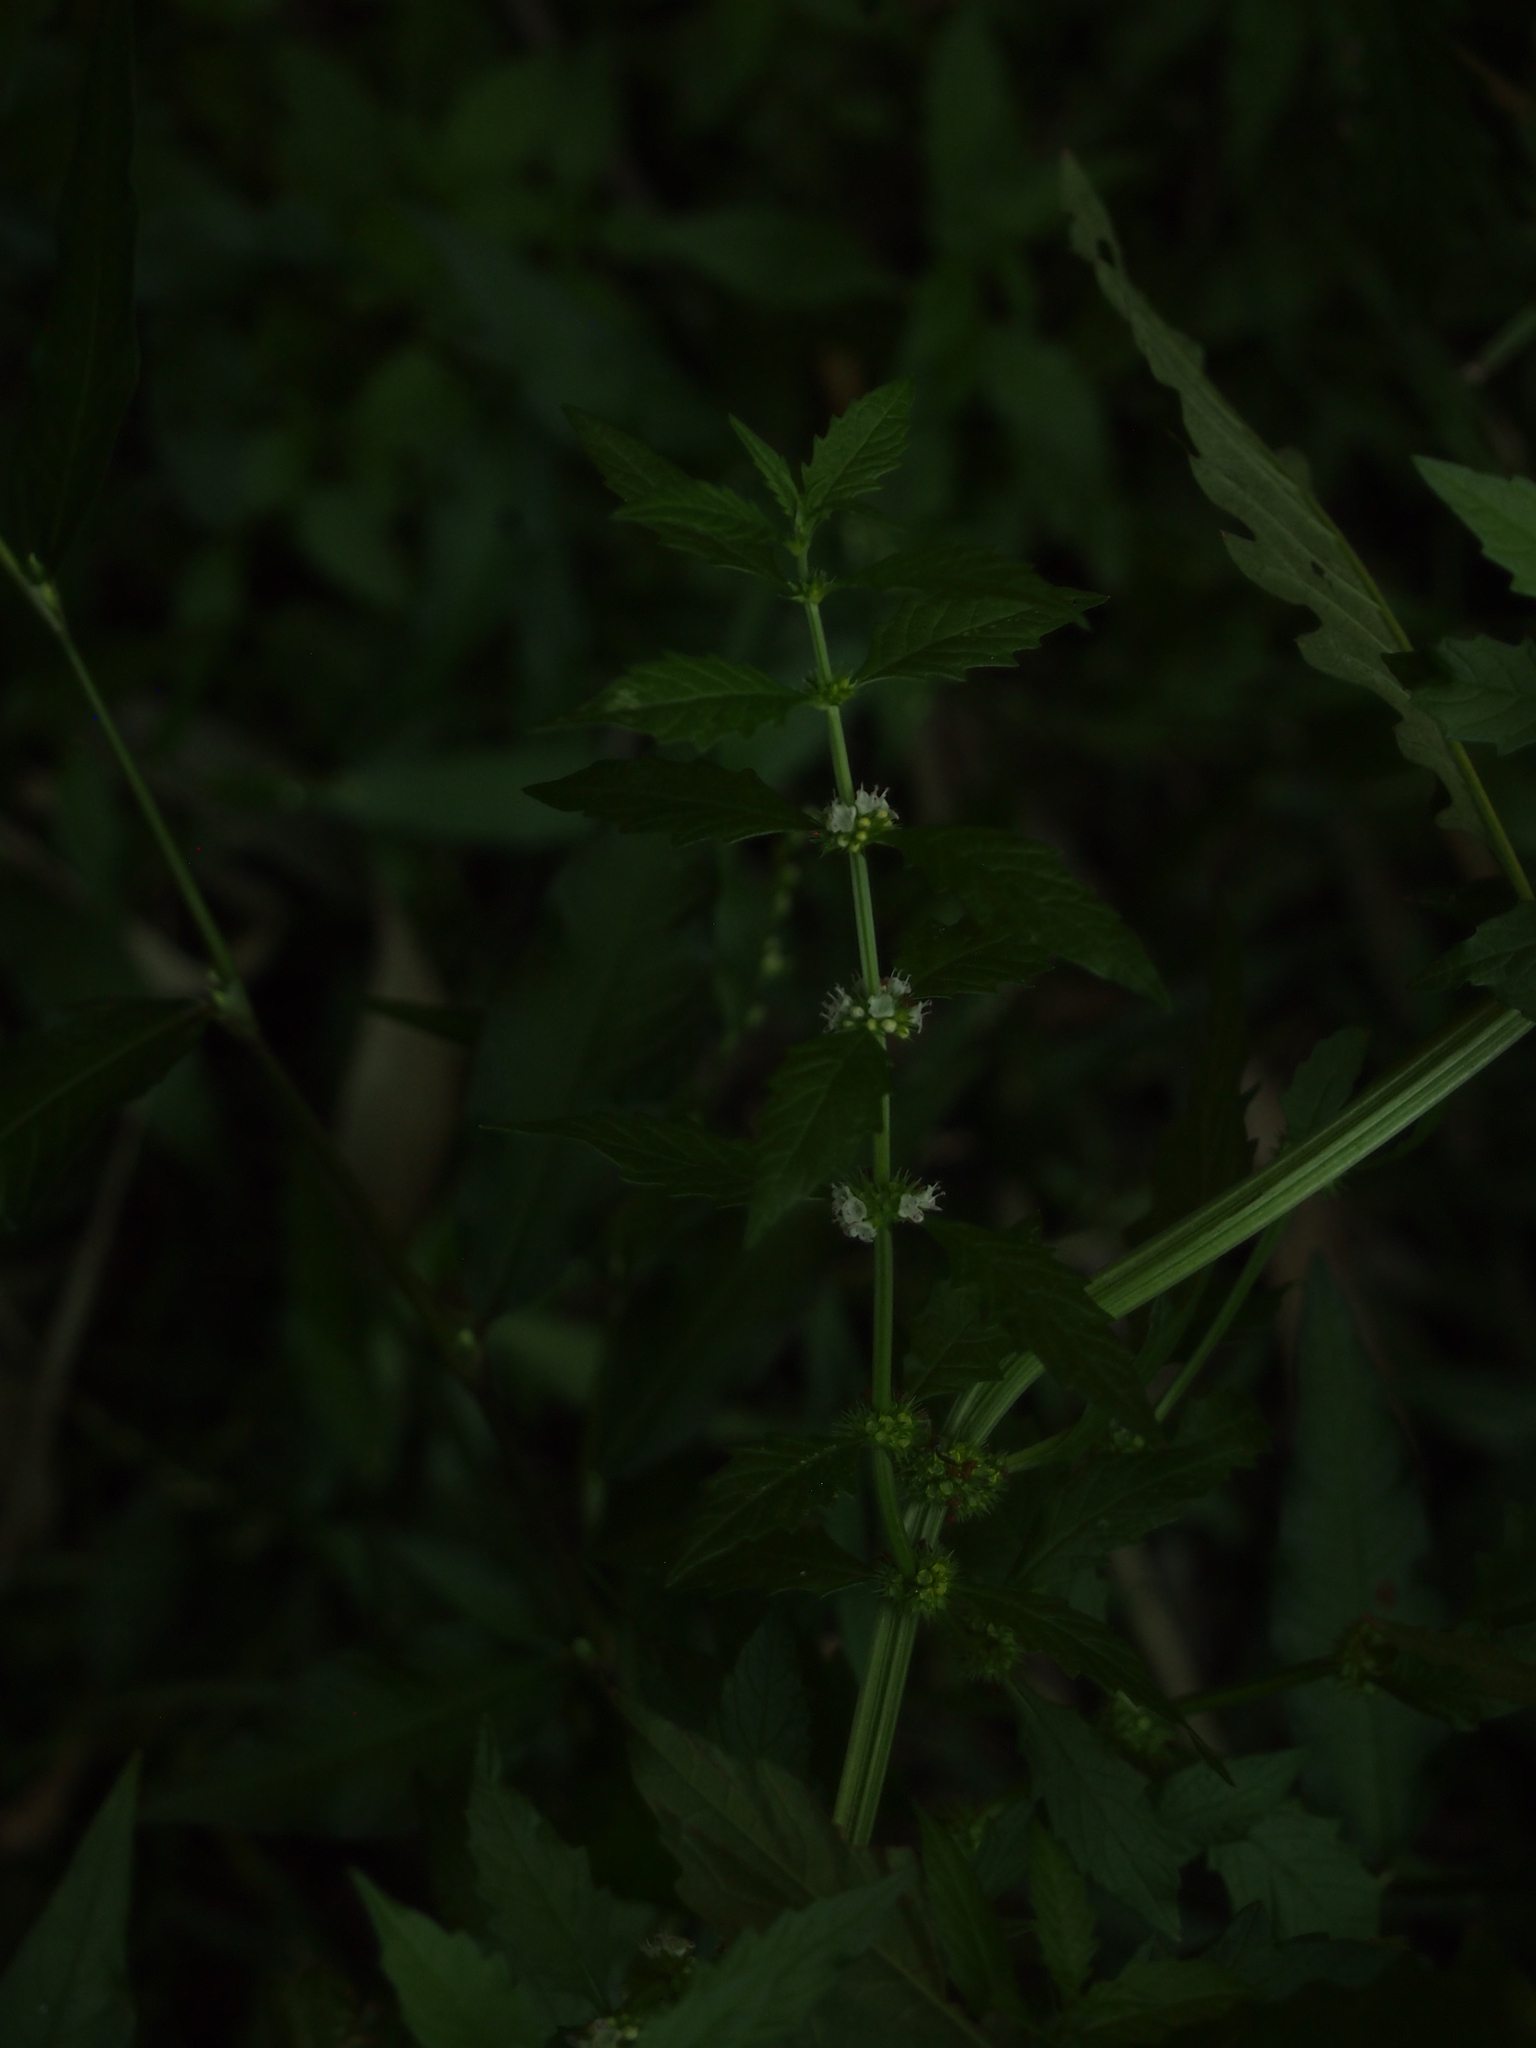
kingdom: Plantae
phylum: Tracheophyta
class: Magnoliopsida
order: Lamiales
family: Lamiaceae
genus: Lycopus
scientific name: Lycopus europaeus
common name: European bugleweed
